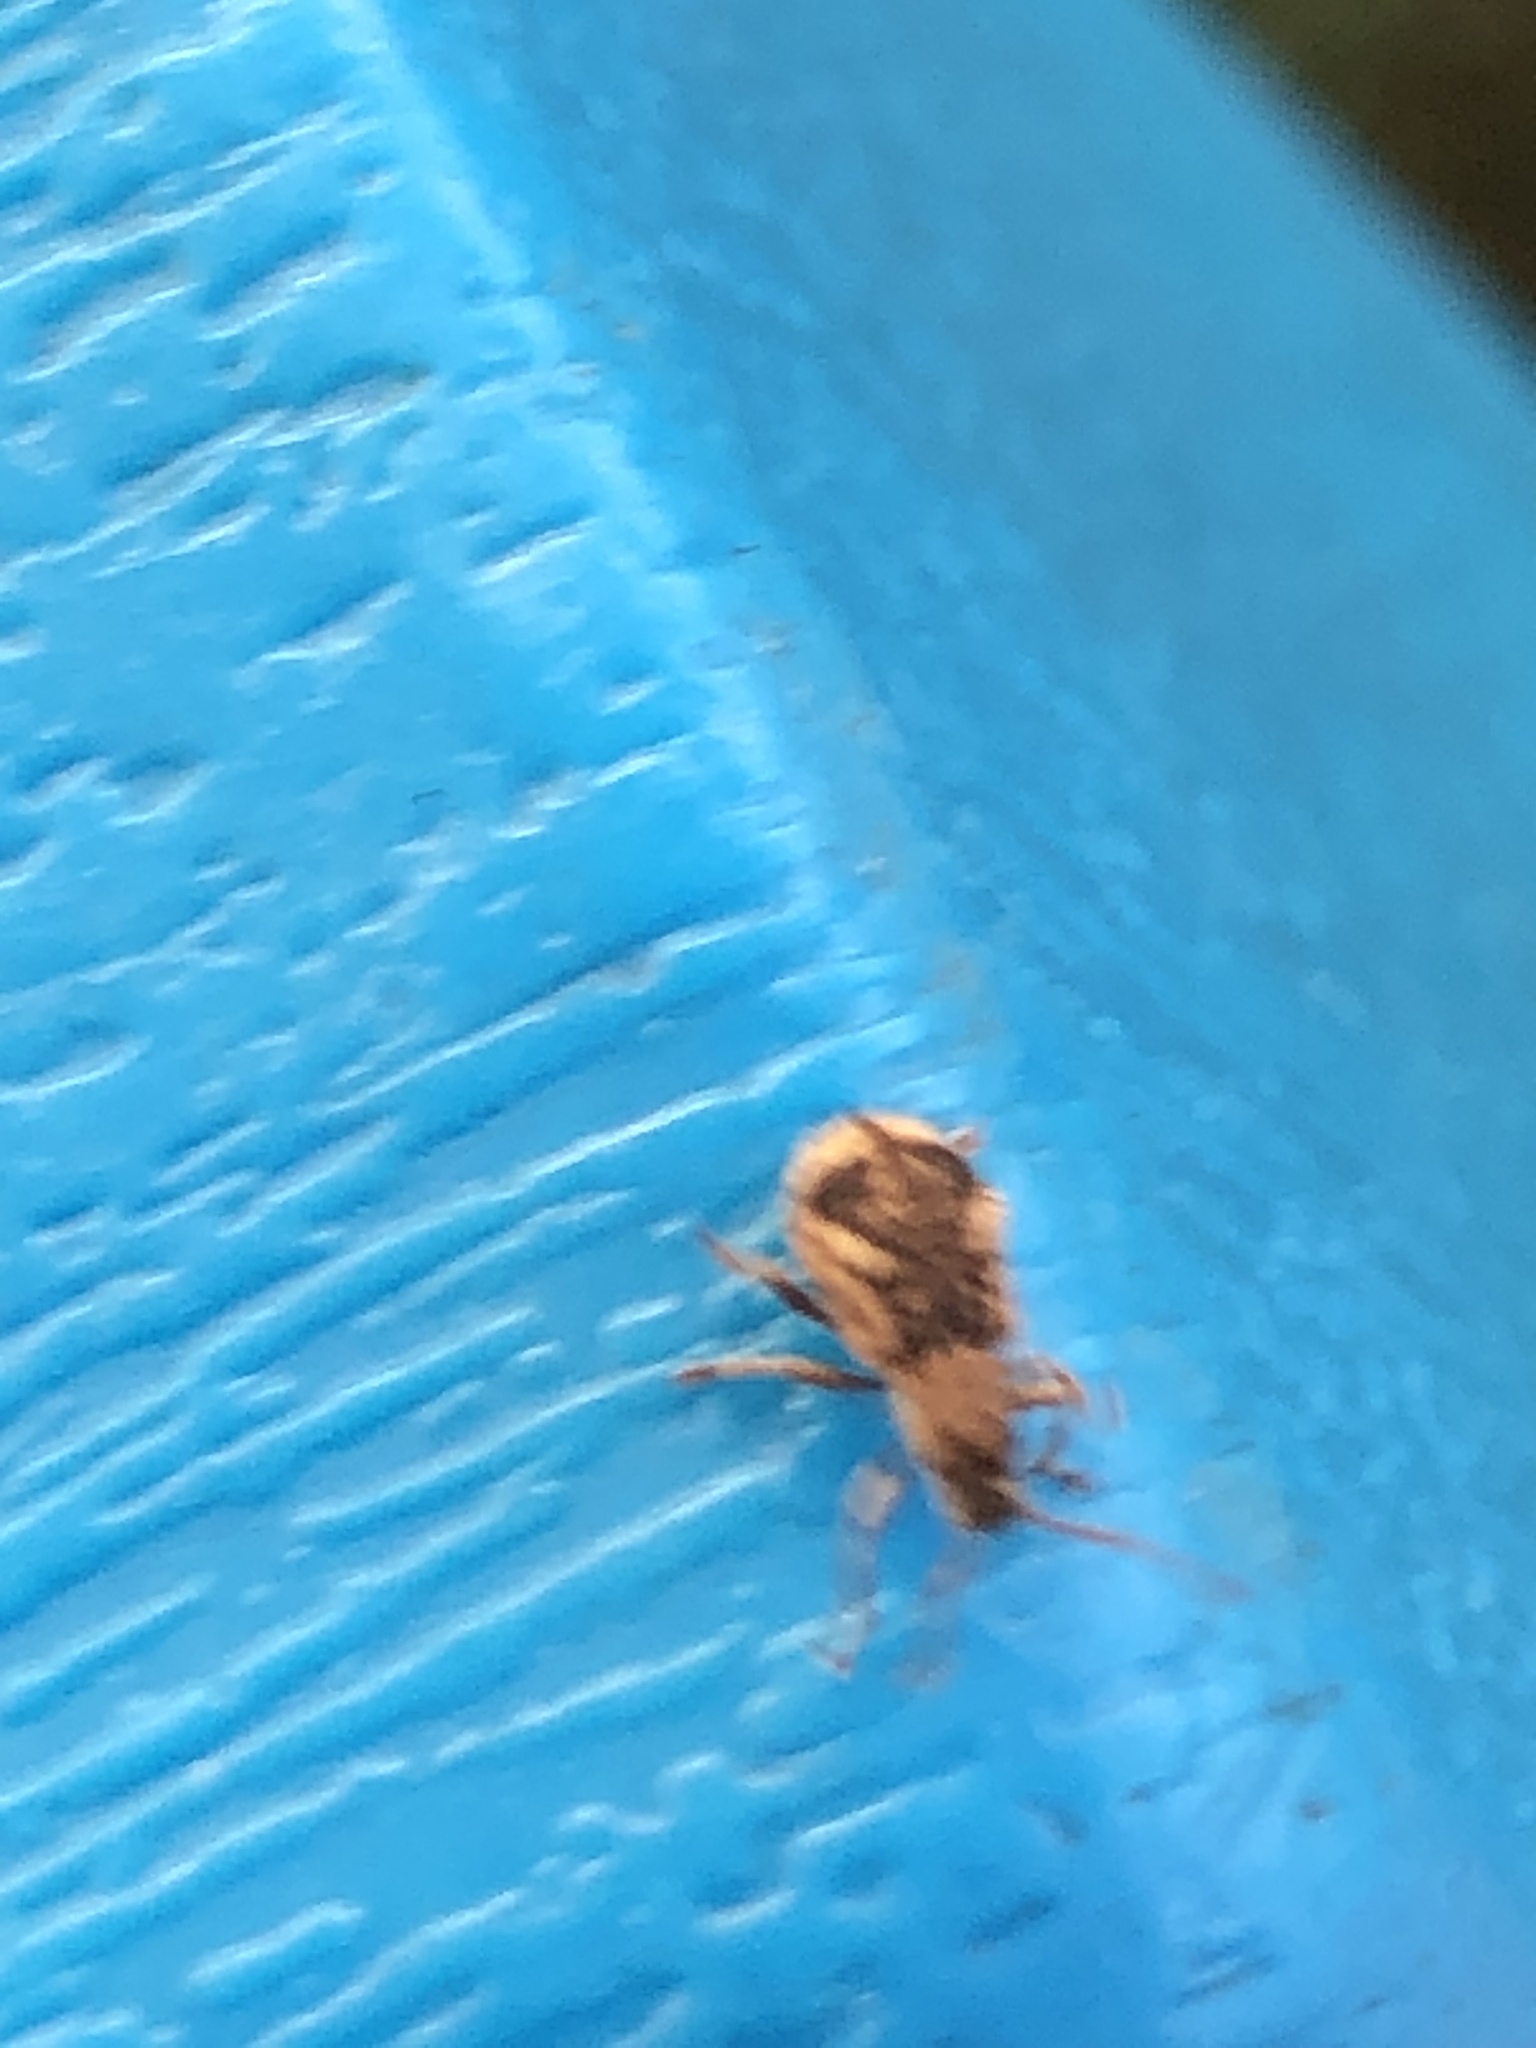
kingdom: Animalia
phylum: Arthropoda
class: Insecta
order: Coleoptera
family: Curculionidae
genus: Pseudoedophrys
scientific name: Pseudoedophrys hilleri
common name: Weevil
